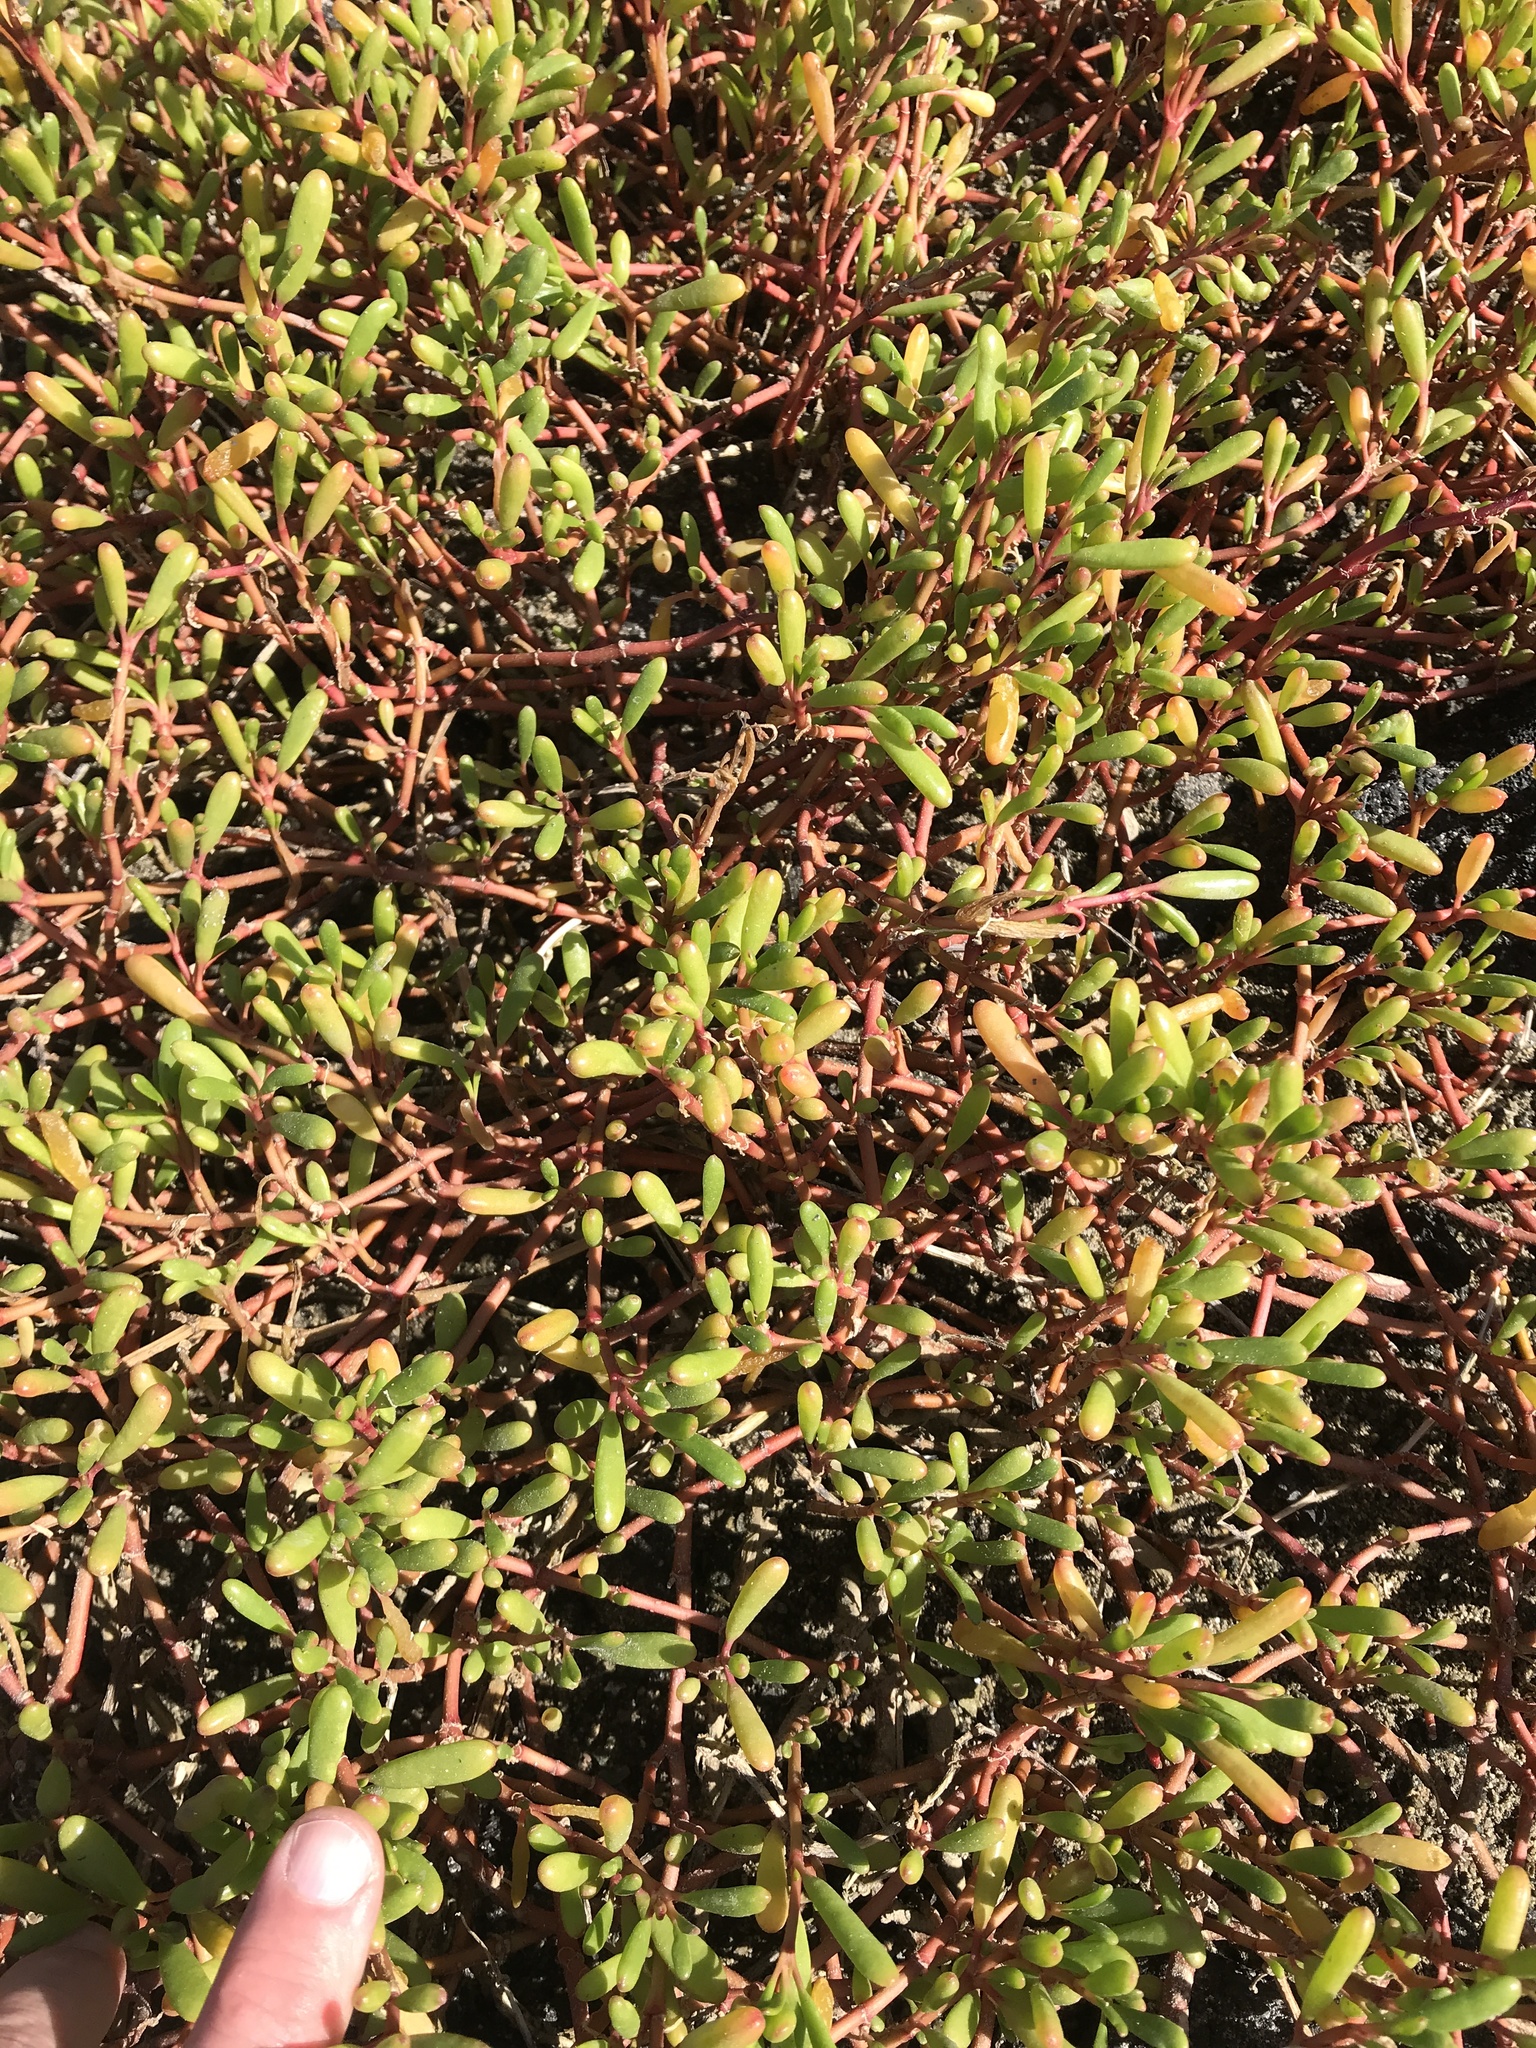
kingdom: Plantae
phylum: Tracheophyta
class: Magnoliopsida
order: Caryophyllales
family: Aizoaceae
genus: Sesuvium
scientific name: Sesuvium portulacastrum
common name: Sea-purslane
